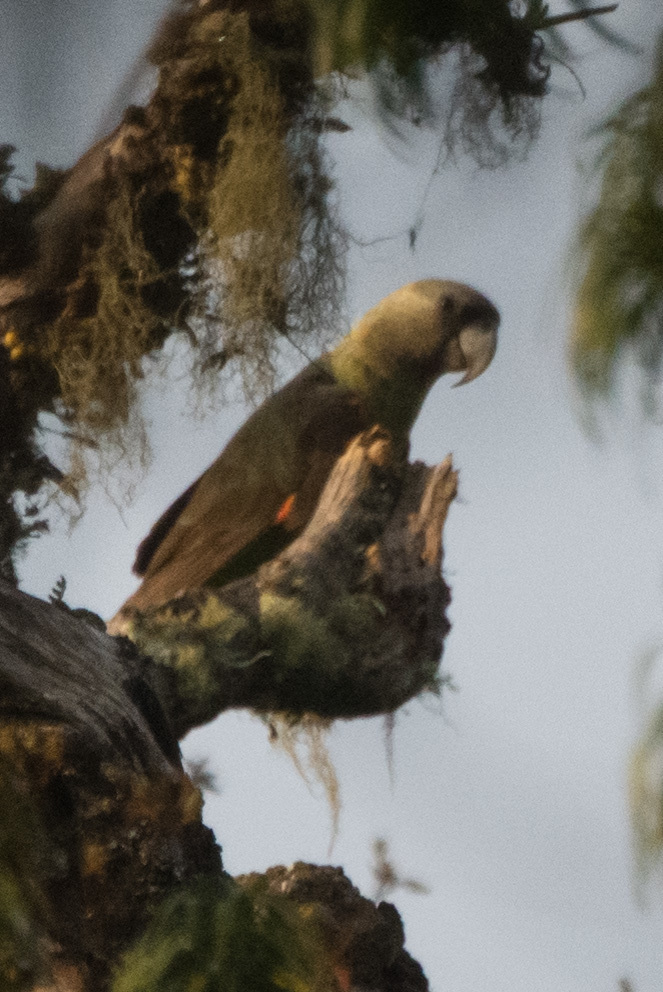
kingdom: Animalia
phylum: Chordata
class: Aves
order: Psittaciformes
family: Psittacidae
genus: Poicephalus
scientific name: Poicephalus robustus
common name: Cape parrot
